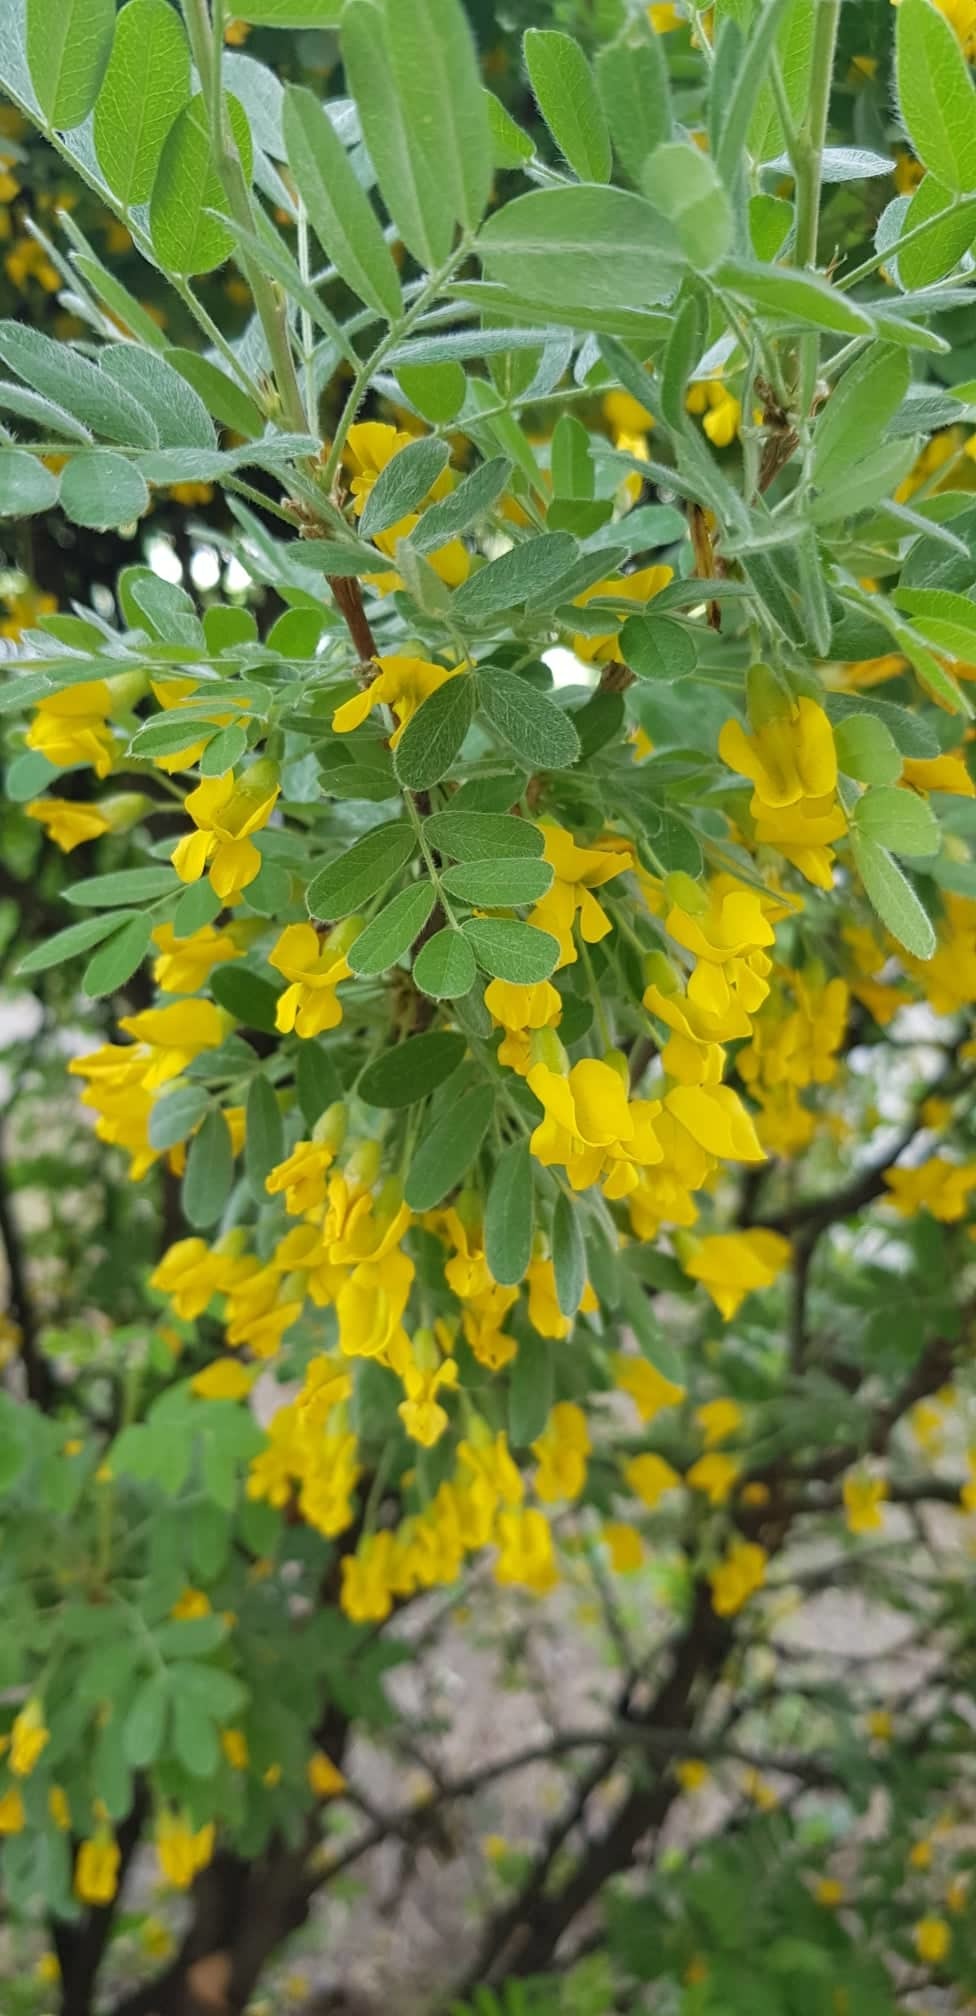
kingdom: Plantae
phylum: Tracheophyta
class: Magnoliopsida
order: Fabales
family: Fabaceae
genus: Caragana
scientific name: Caragana arborescens
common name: Siberian peashrub
